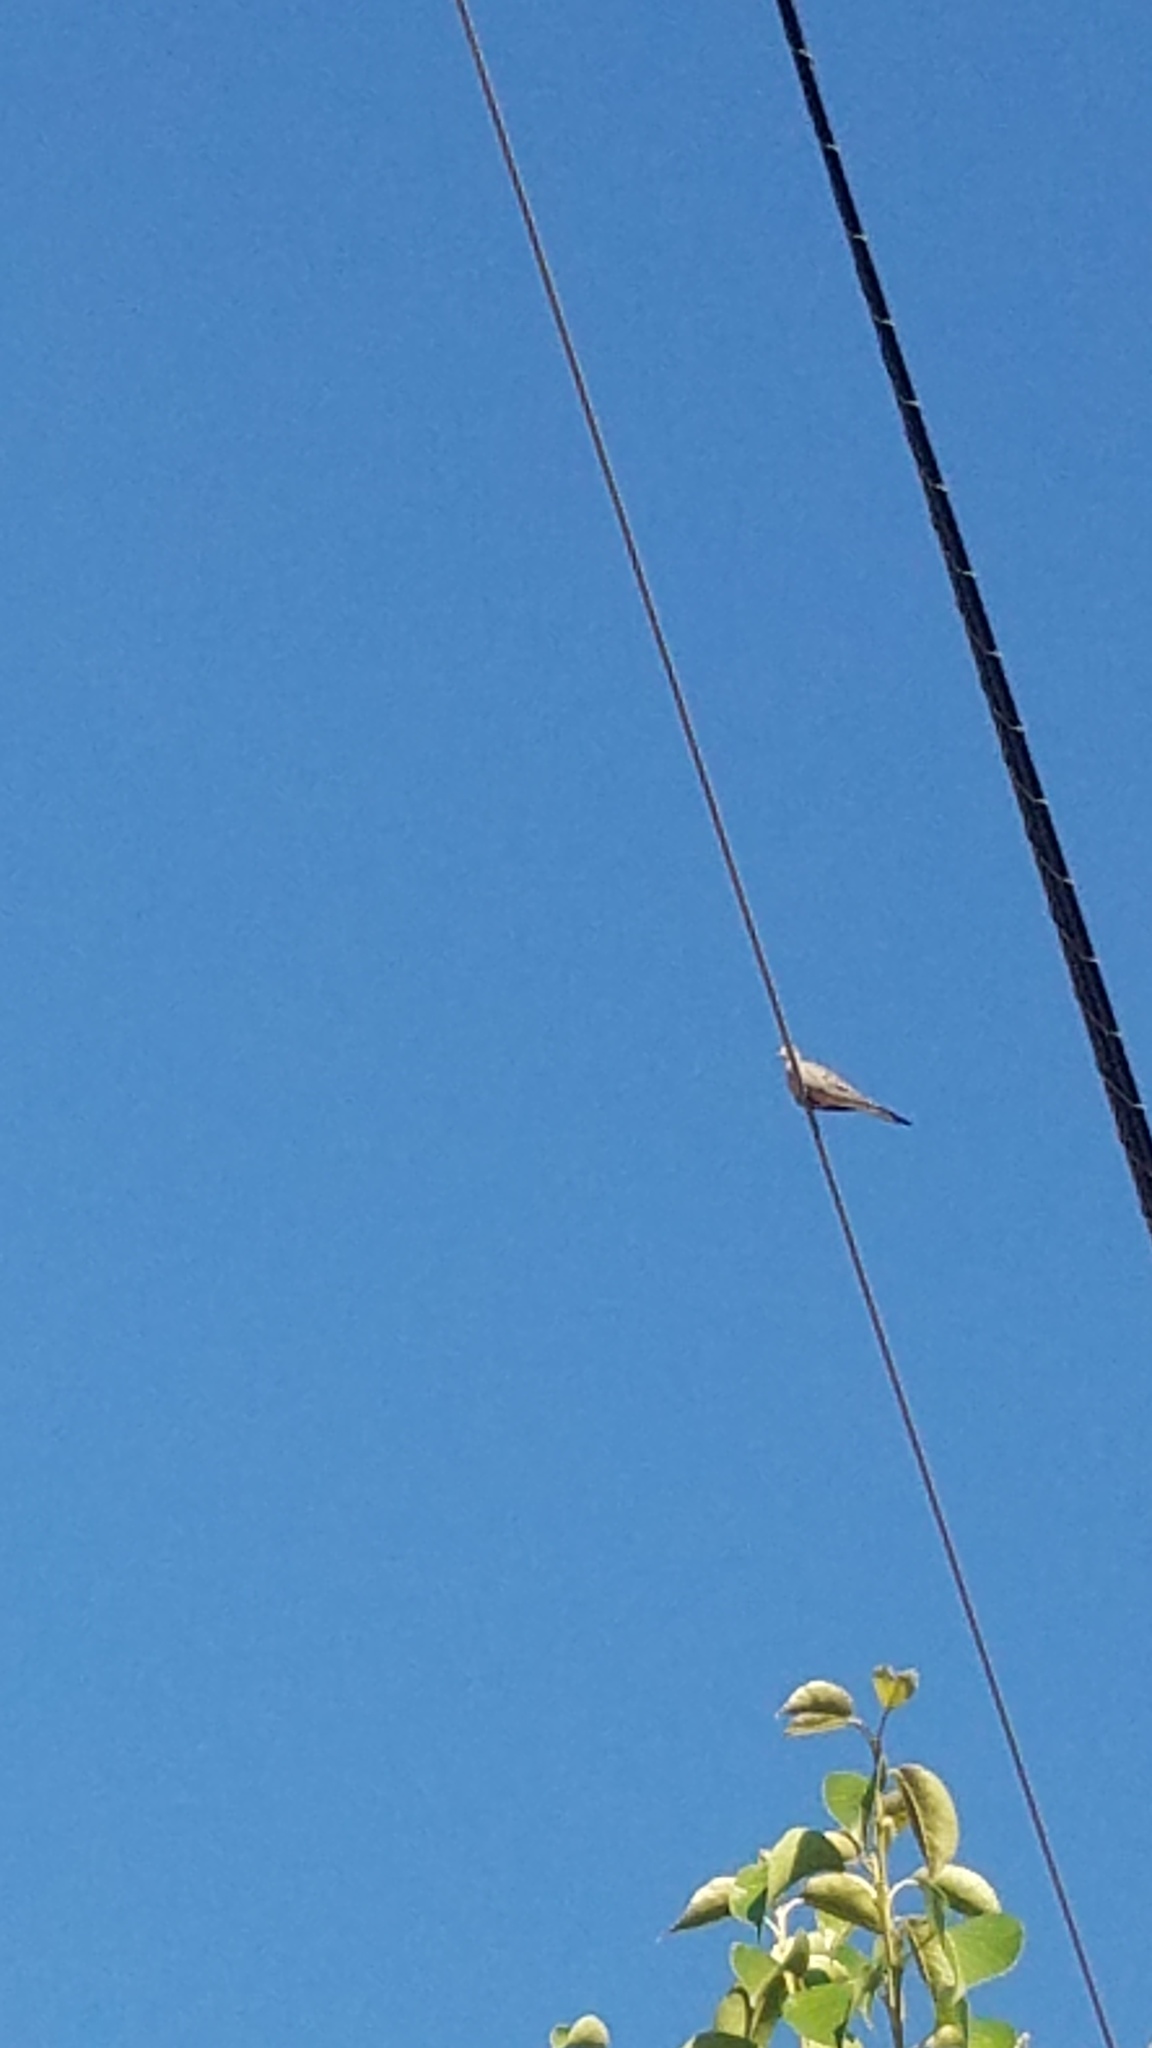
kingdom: Animalia
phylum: Chordata
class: Aves
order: Columbiformes
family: Columbidae
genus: Zenaida
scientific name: Zenaida macroura
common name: Mourning dove
